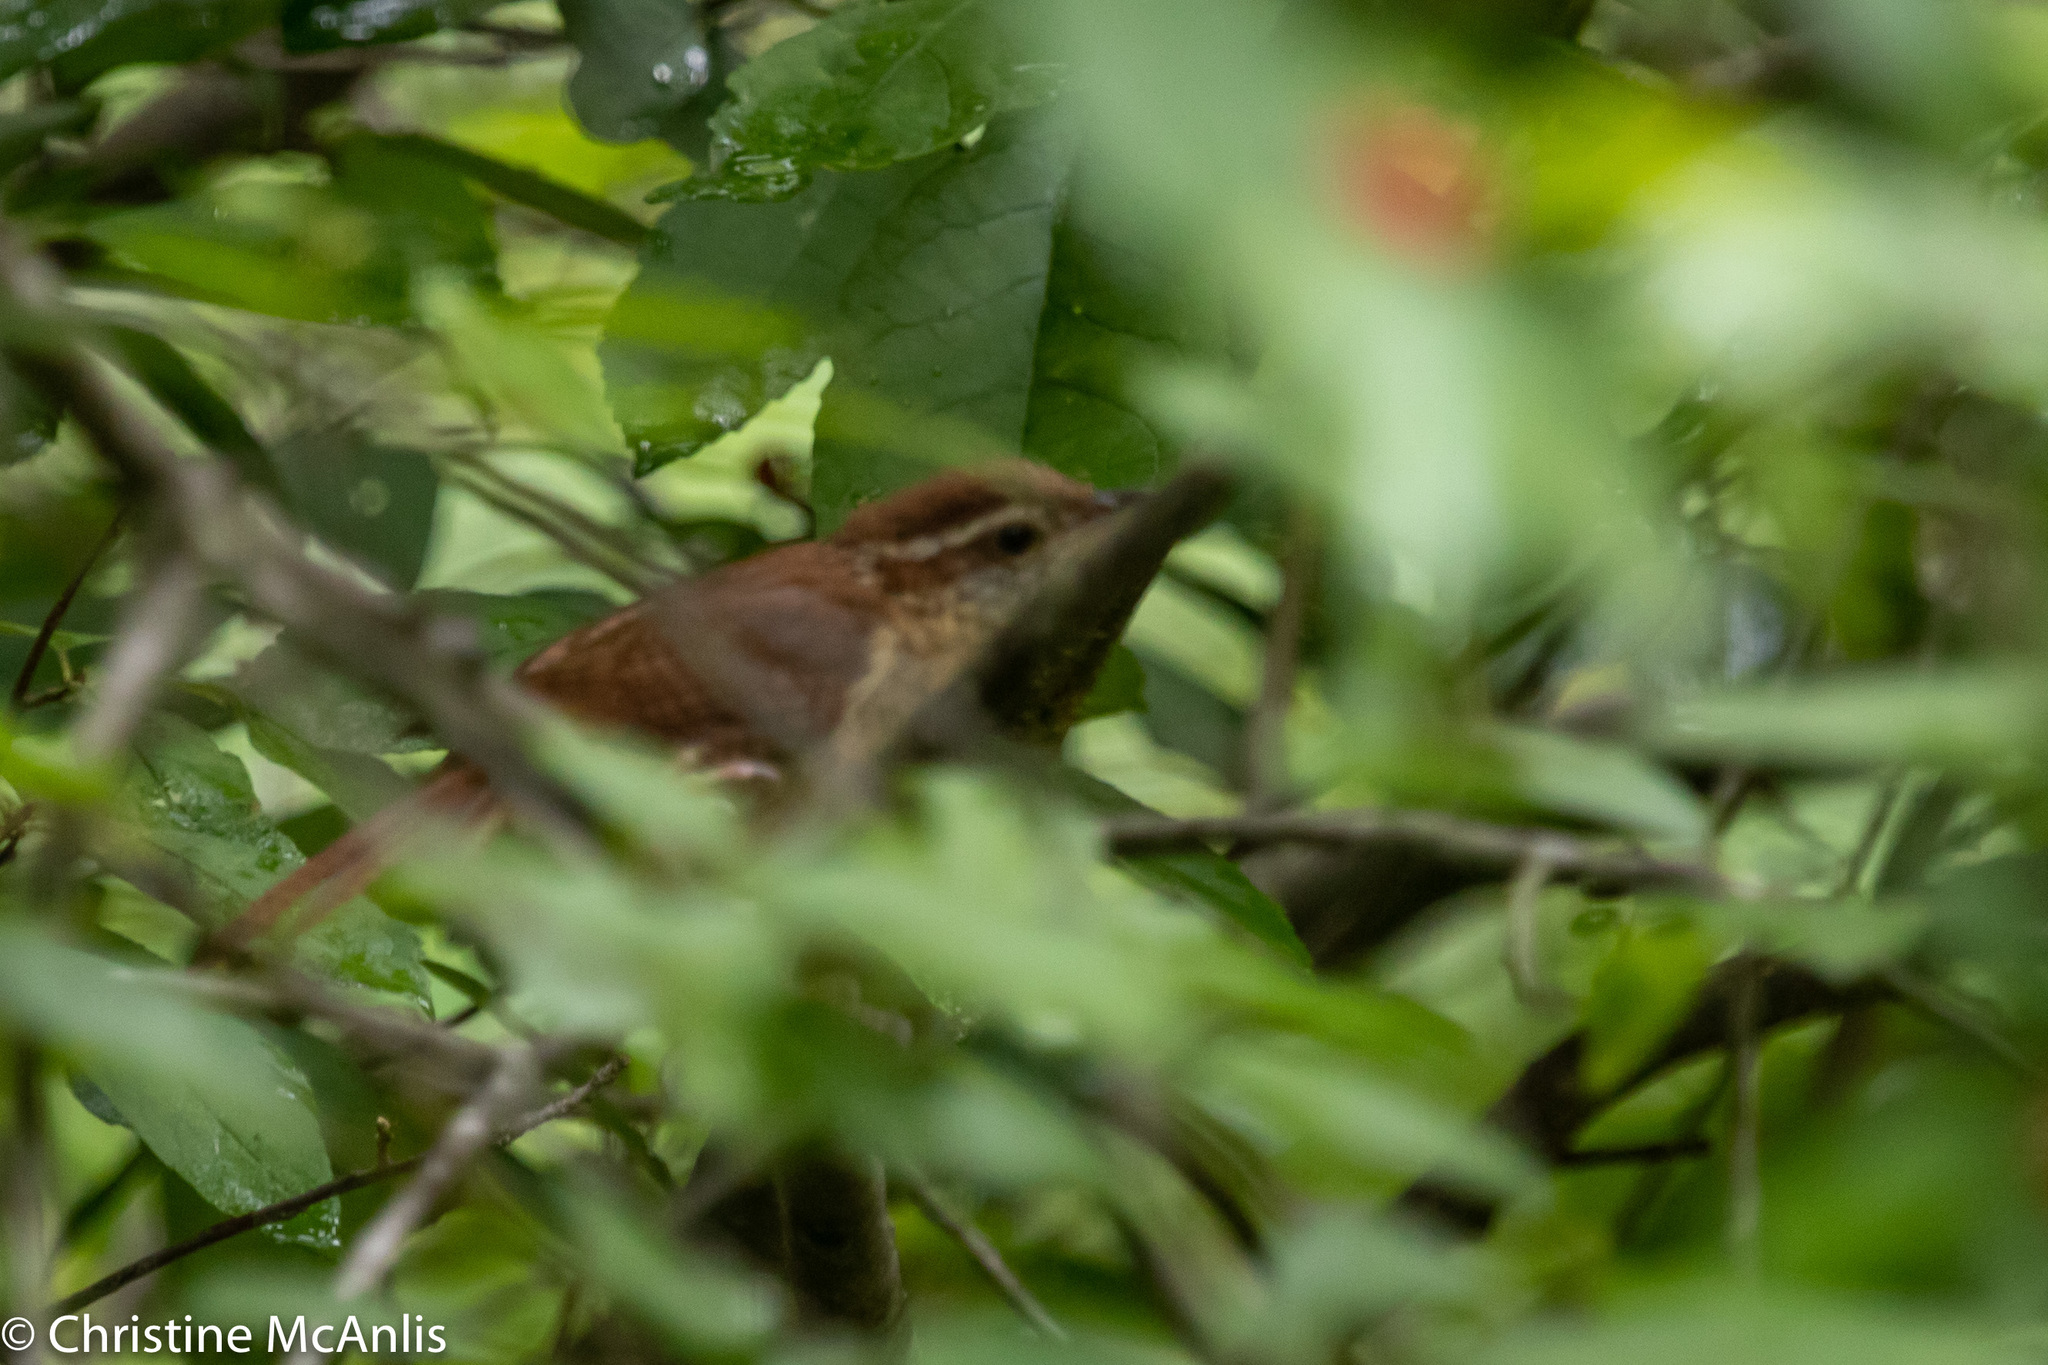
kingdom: Animalia
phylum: Chordata
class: Aves
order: Passeriformes
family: Troglodytidae
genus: Thryothorus
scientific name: Thryothorus ludovicianus
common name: Carolina wren
